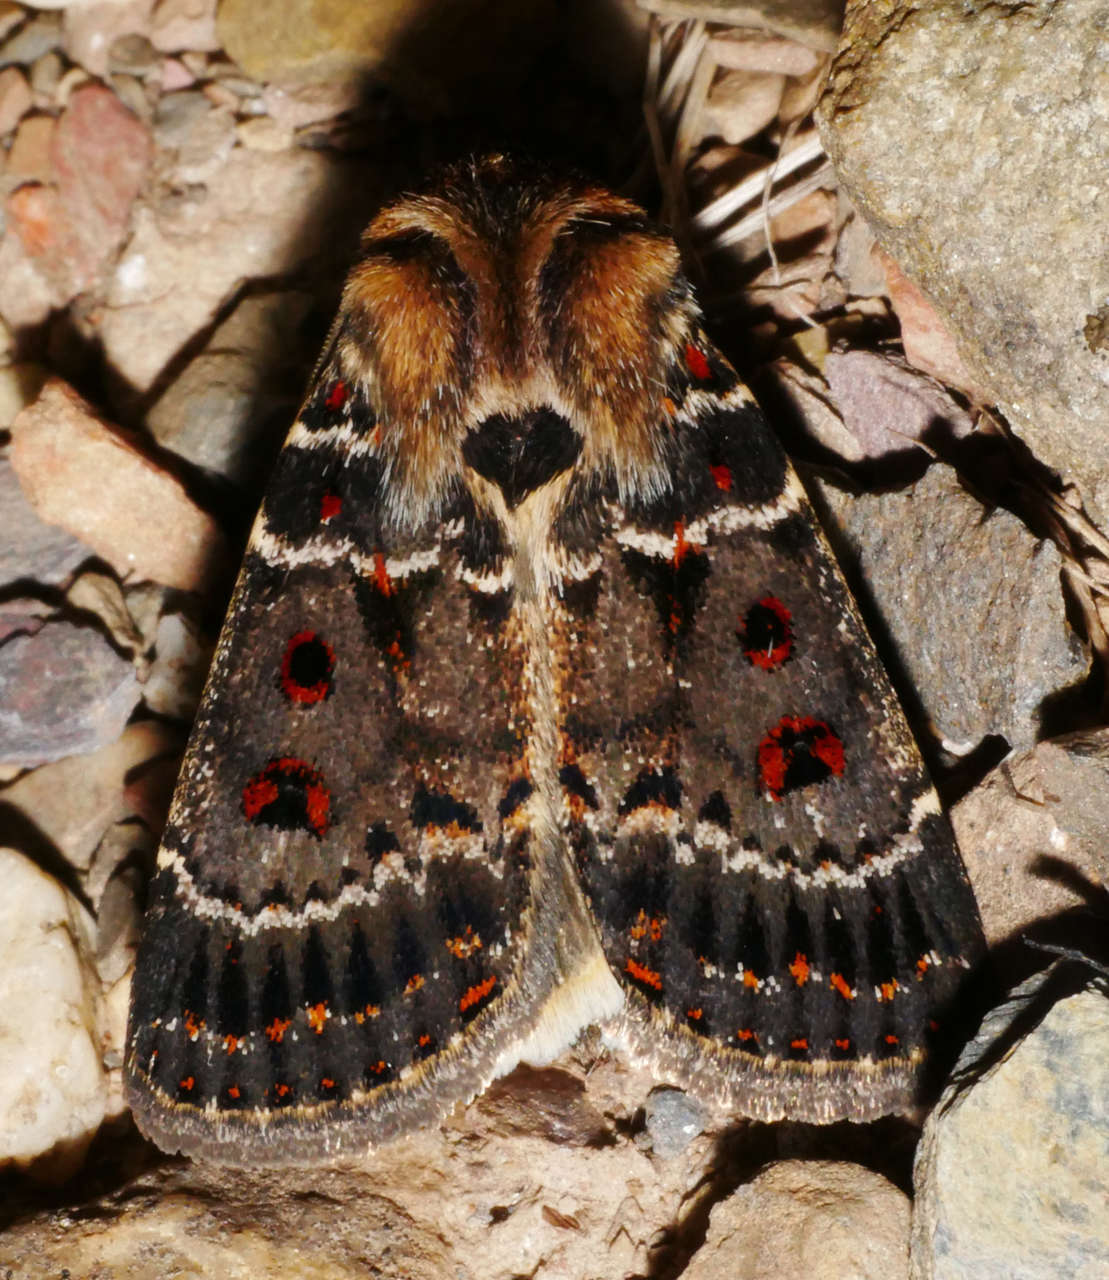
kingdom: Animalia
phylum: Arthropoda
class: Insecta
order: Lepidoptera
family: Noctuidae
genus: Proteuxoa
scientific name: Proteuxoa sanguinipuncta
